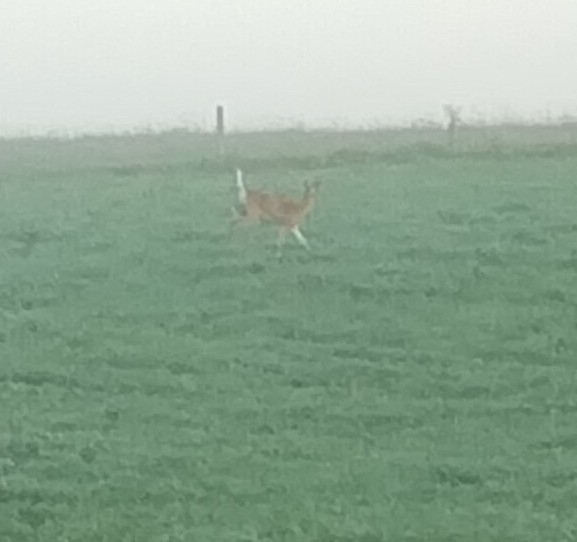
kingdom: Animalia
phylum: Chordata
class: Mammalia
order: Artiodactyla
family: Cervidae
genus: Odocoileus
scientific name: Odocoileus virginianus
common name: White-tailed deer
